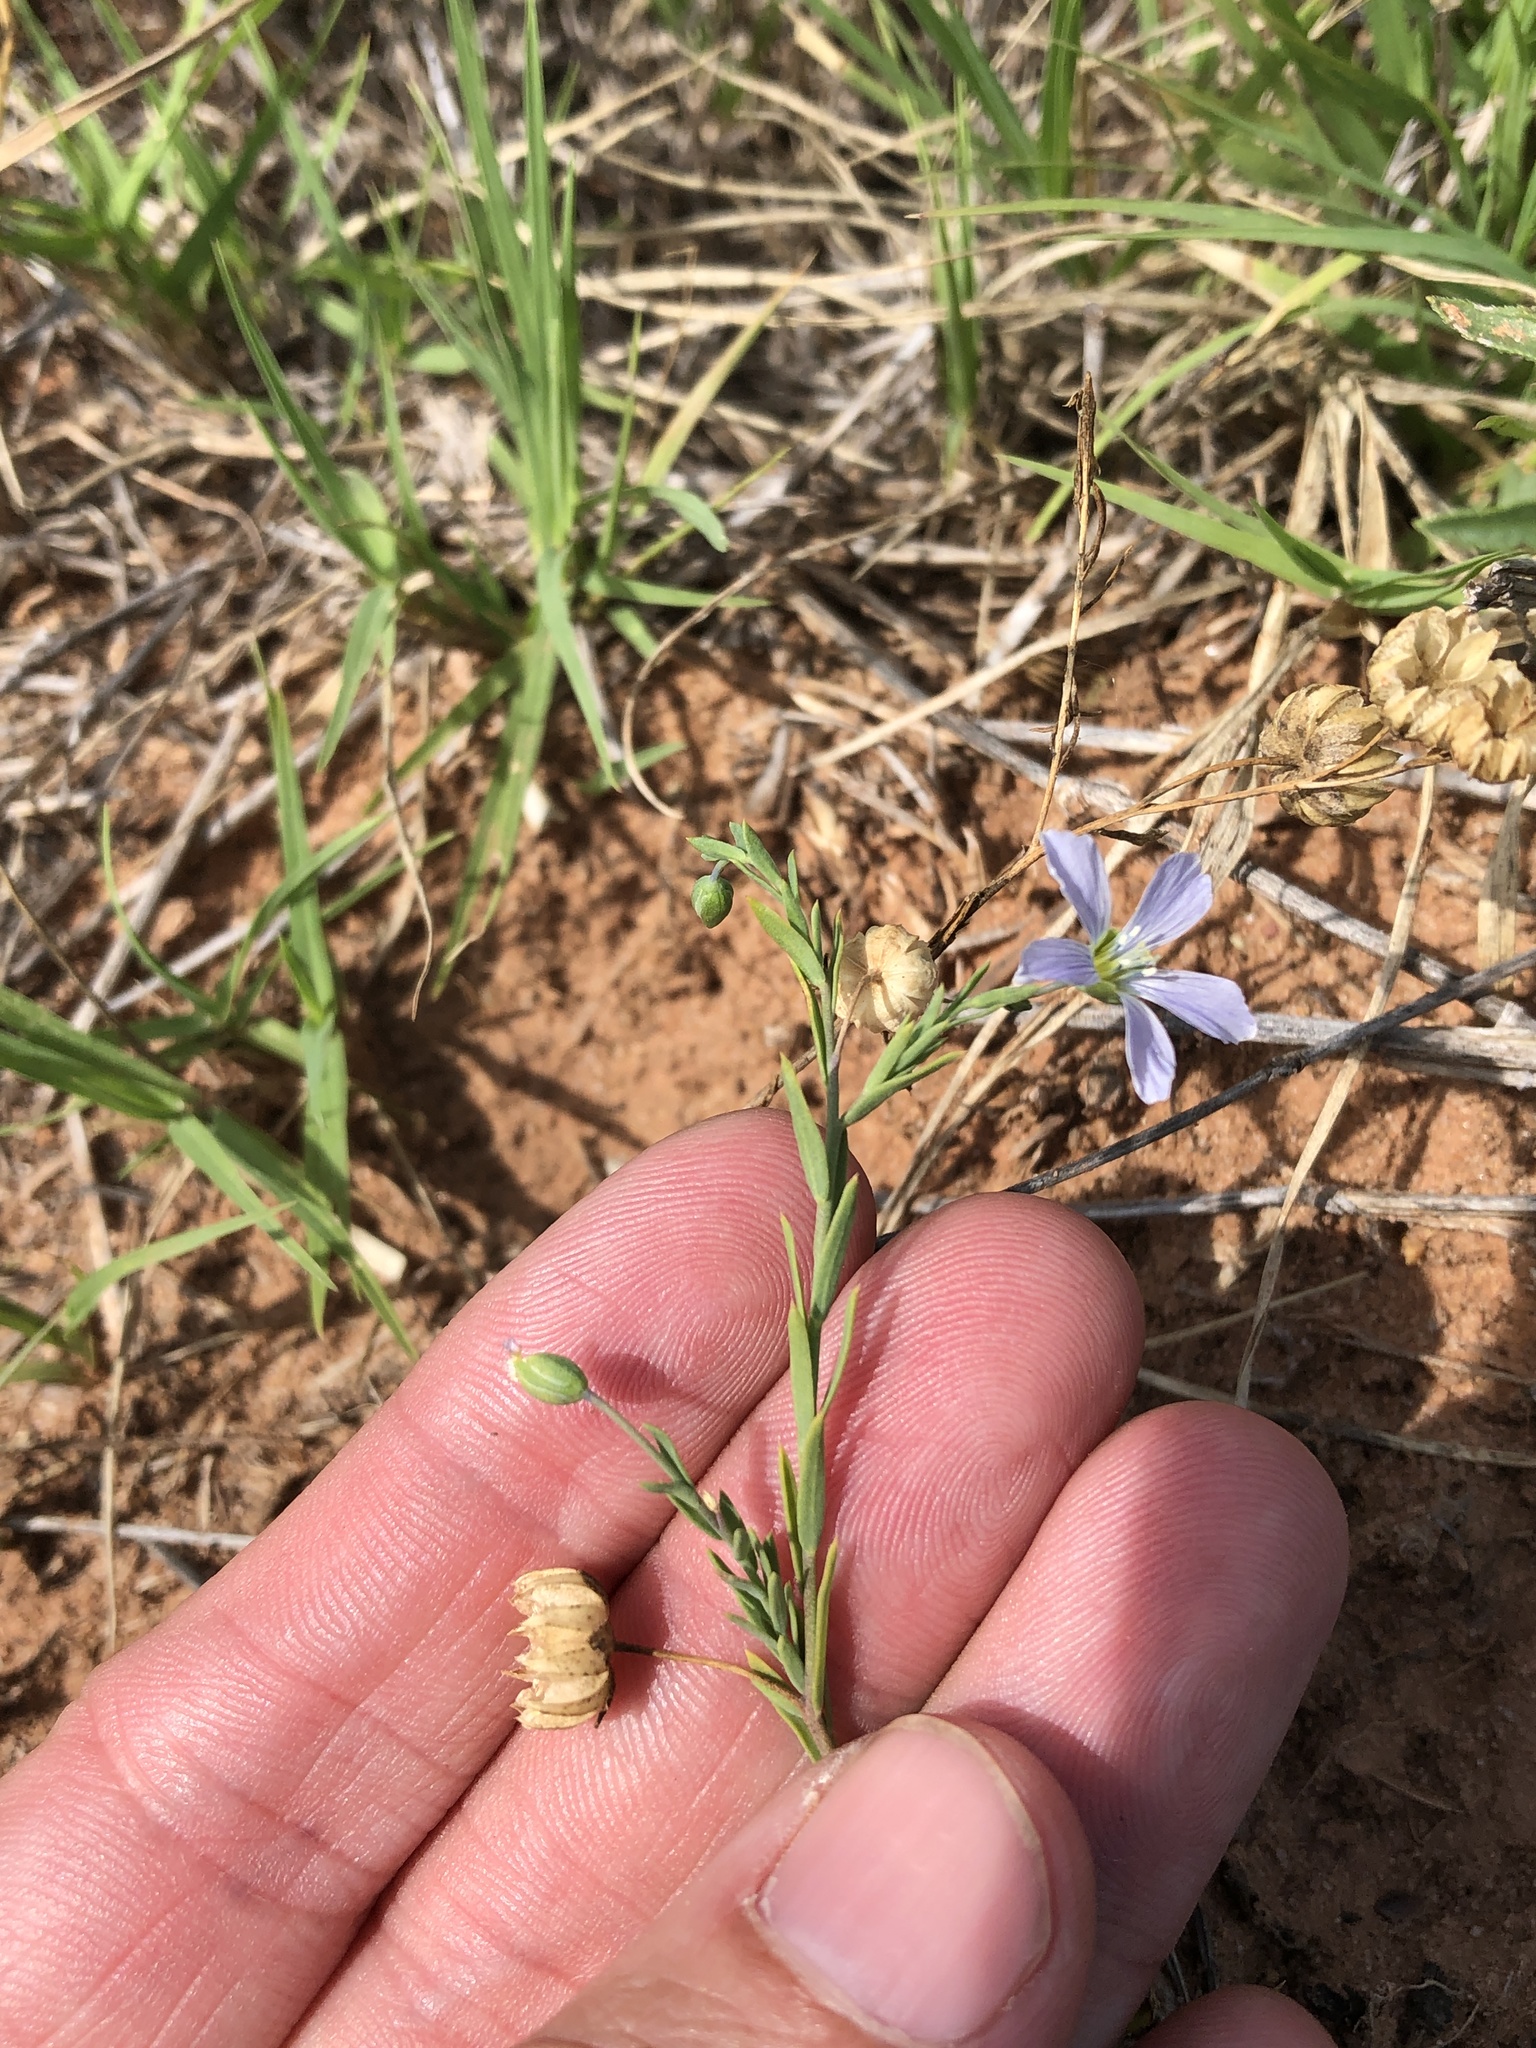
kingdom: Plantae
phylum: Tracheophyta
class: Magnoliopsida
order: Malpighiales
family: Linaceae
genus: Linum
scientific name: Linum pratense
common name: Norton's flax
